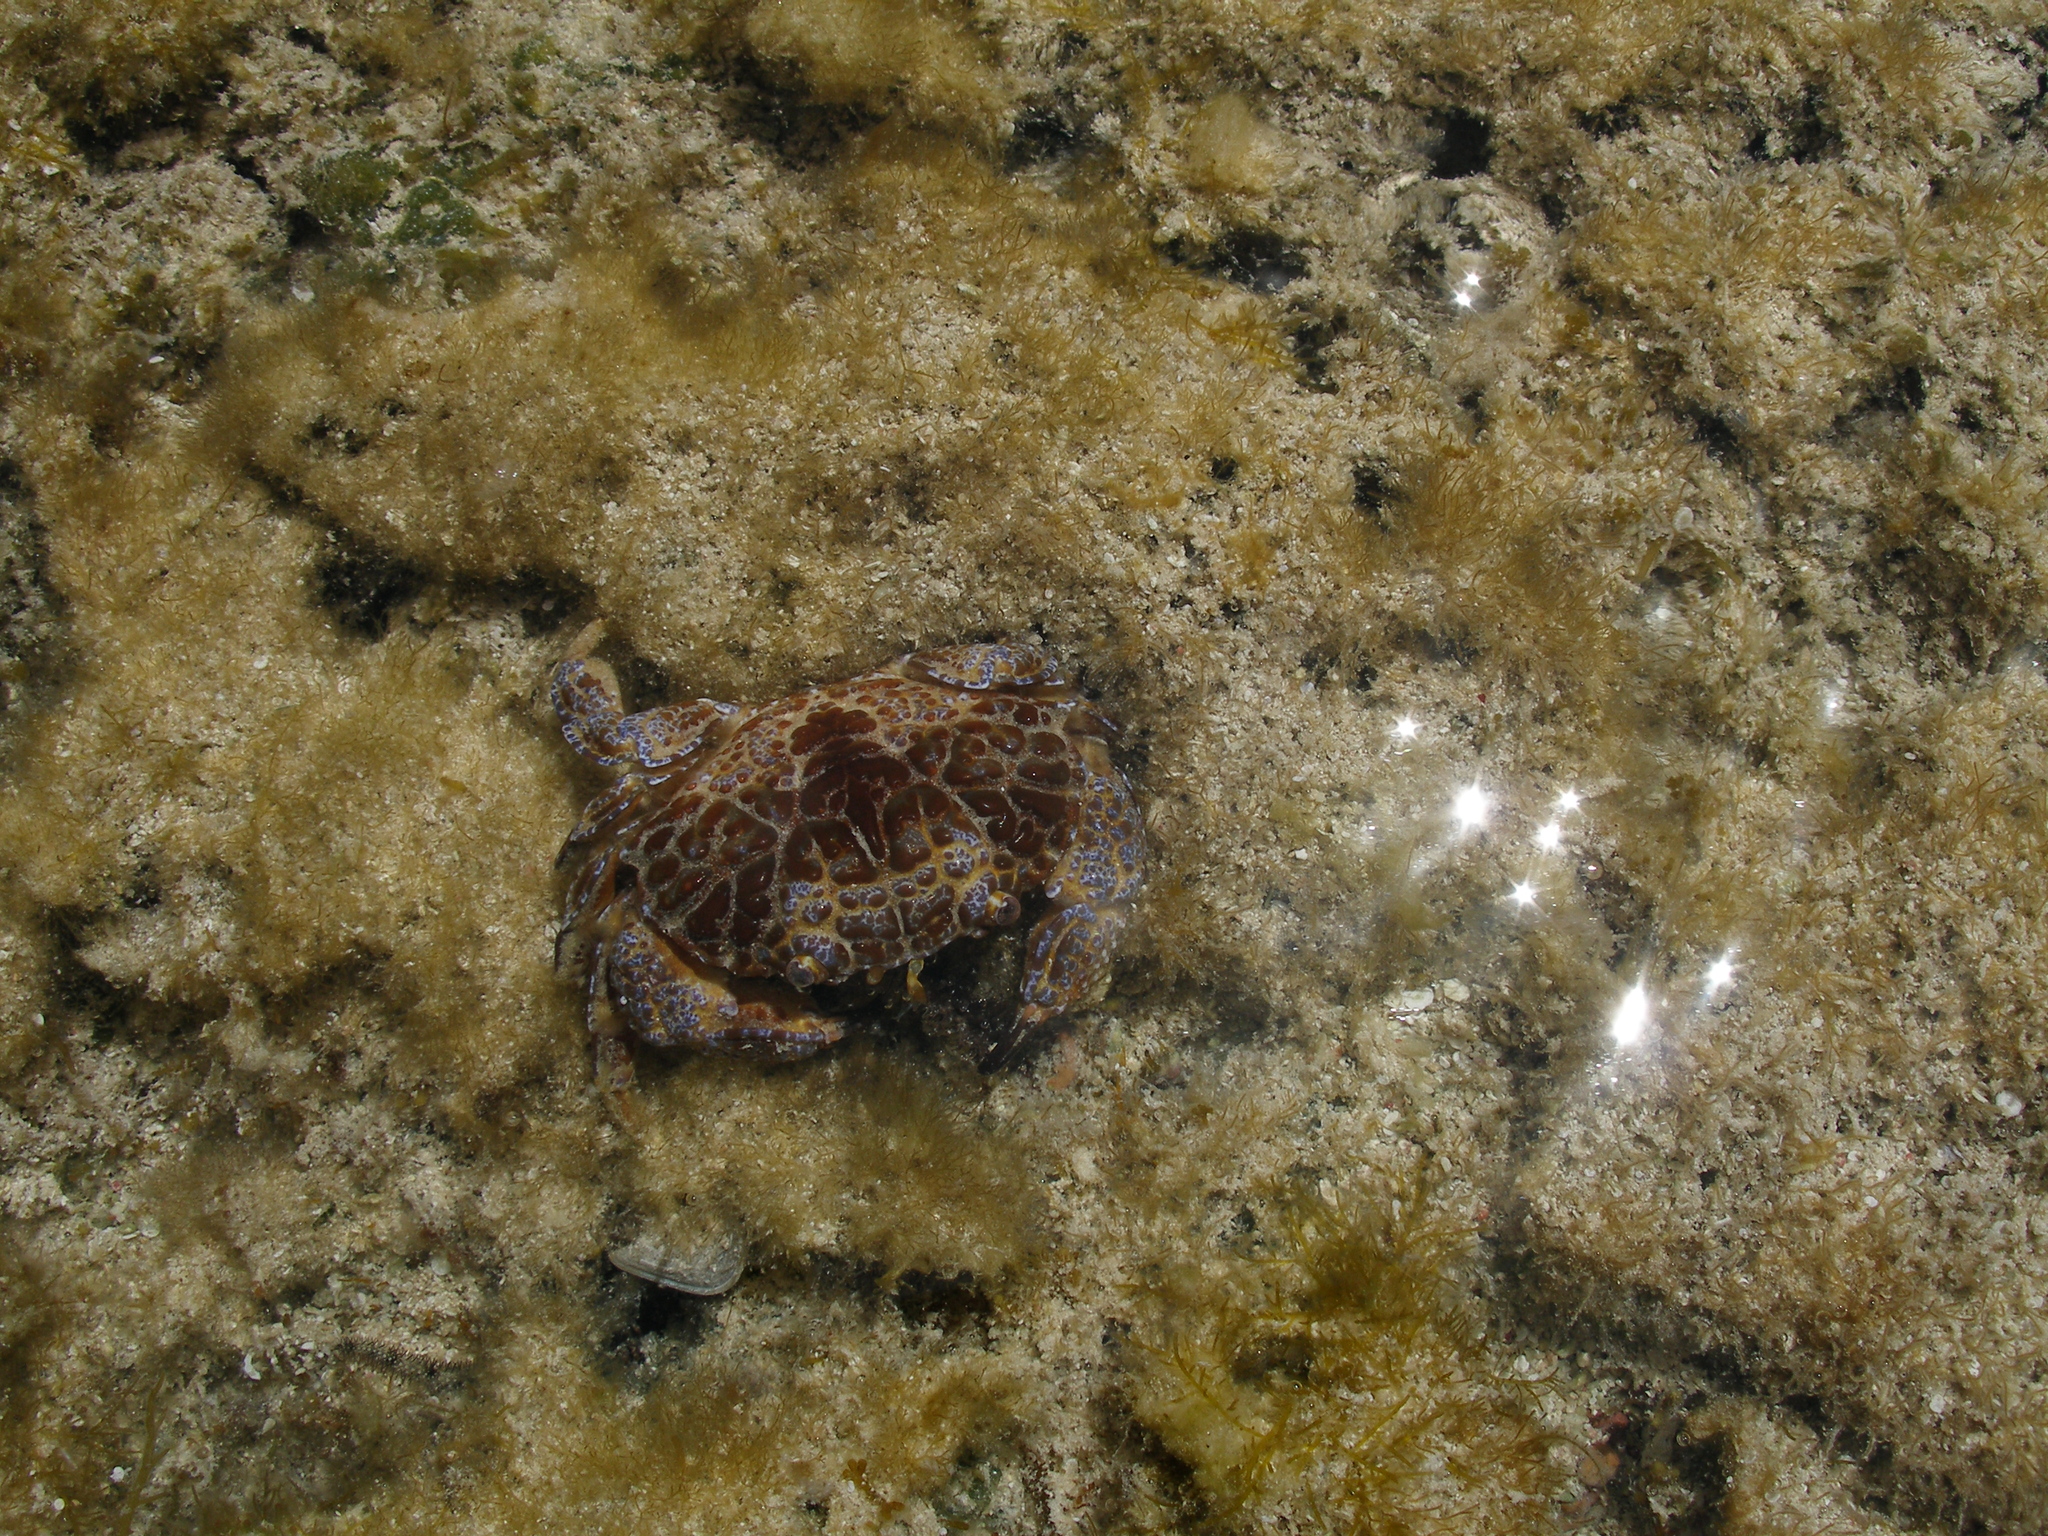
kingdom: Animalia
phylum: Arthropoda
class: Malacostraca
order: Decapoda
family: Xanthidae
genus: Zosimus
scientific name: Zosimus aeneus
